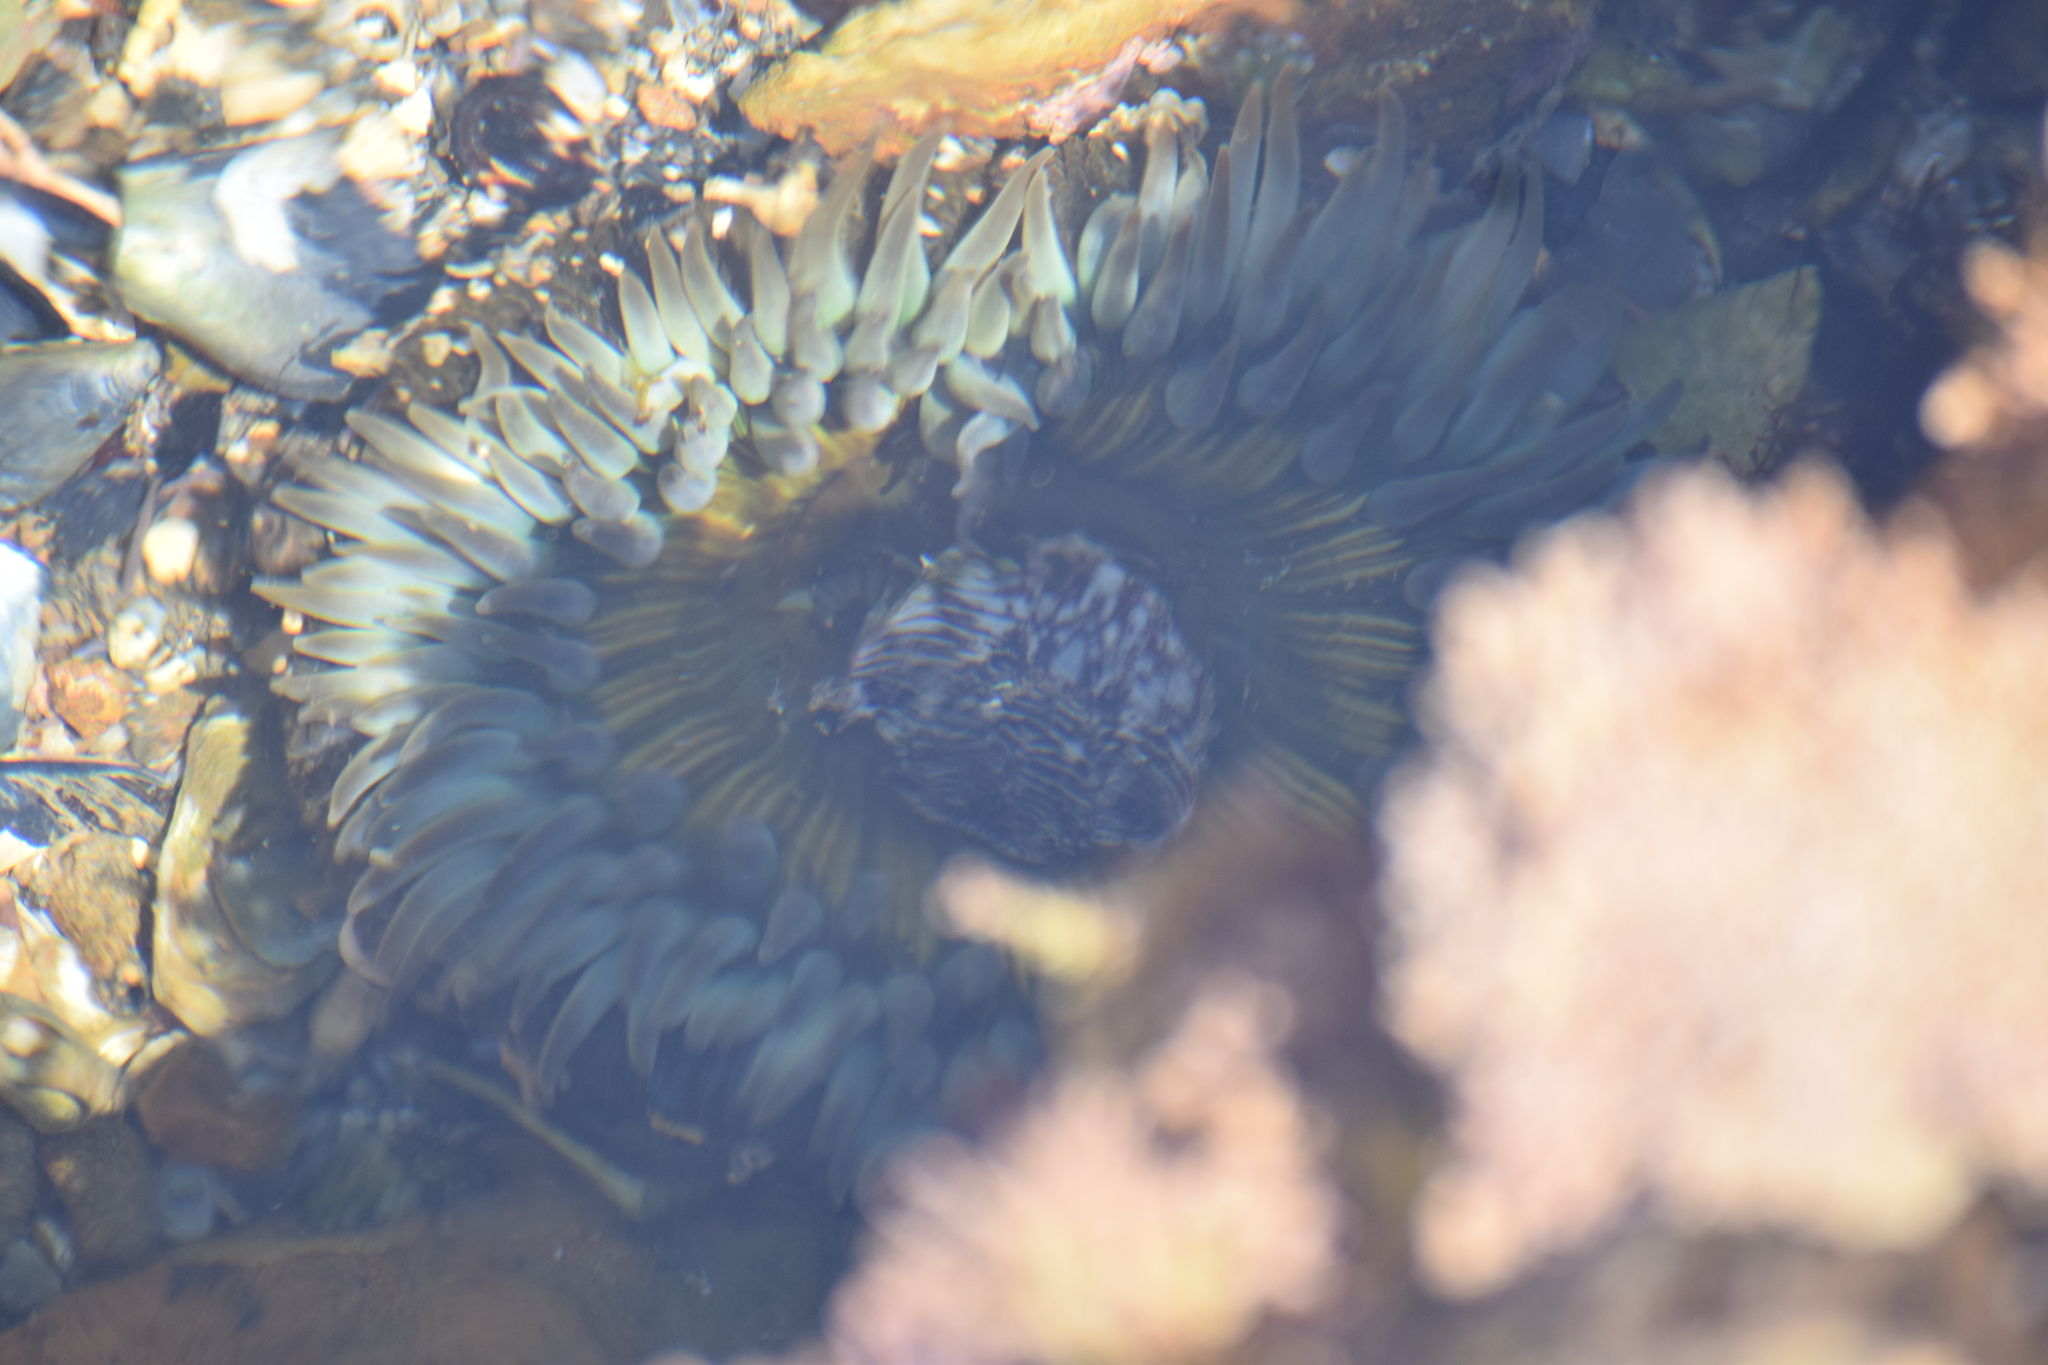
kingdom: Animalia
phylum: Cnidaria
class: Anthozoa
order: Actiniaria
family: Actiniidae
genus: Anthopleura
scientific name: Anthopleura sola
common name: Sun anemone
